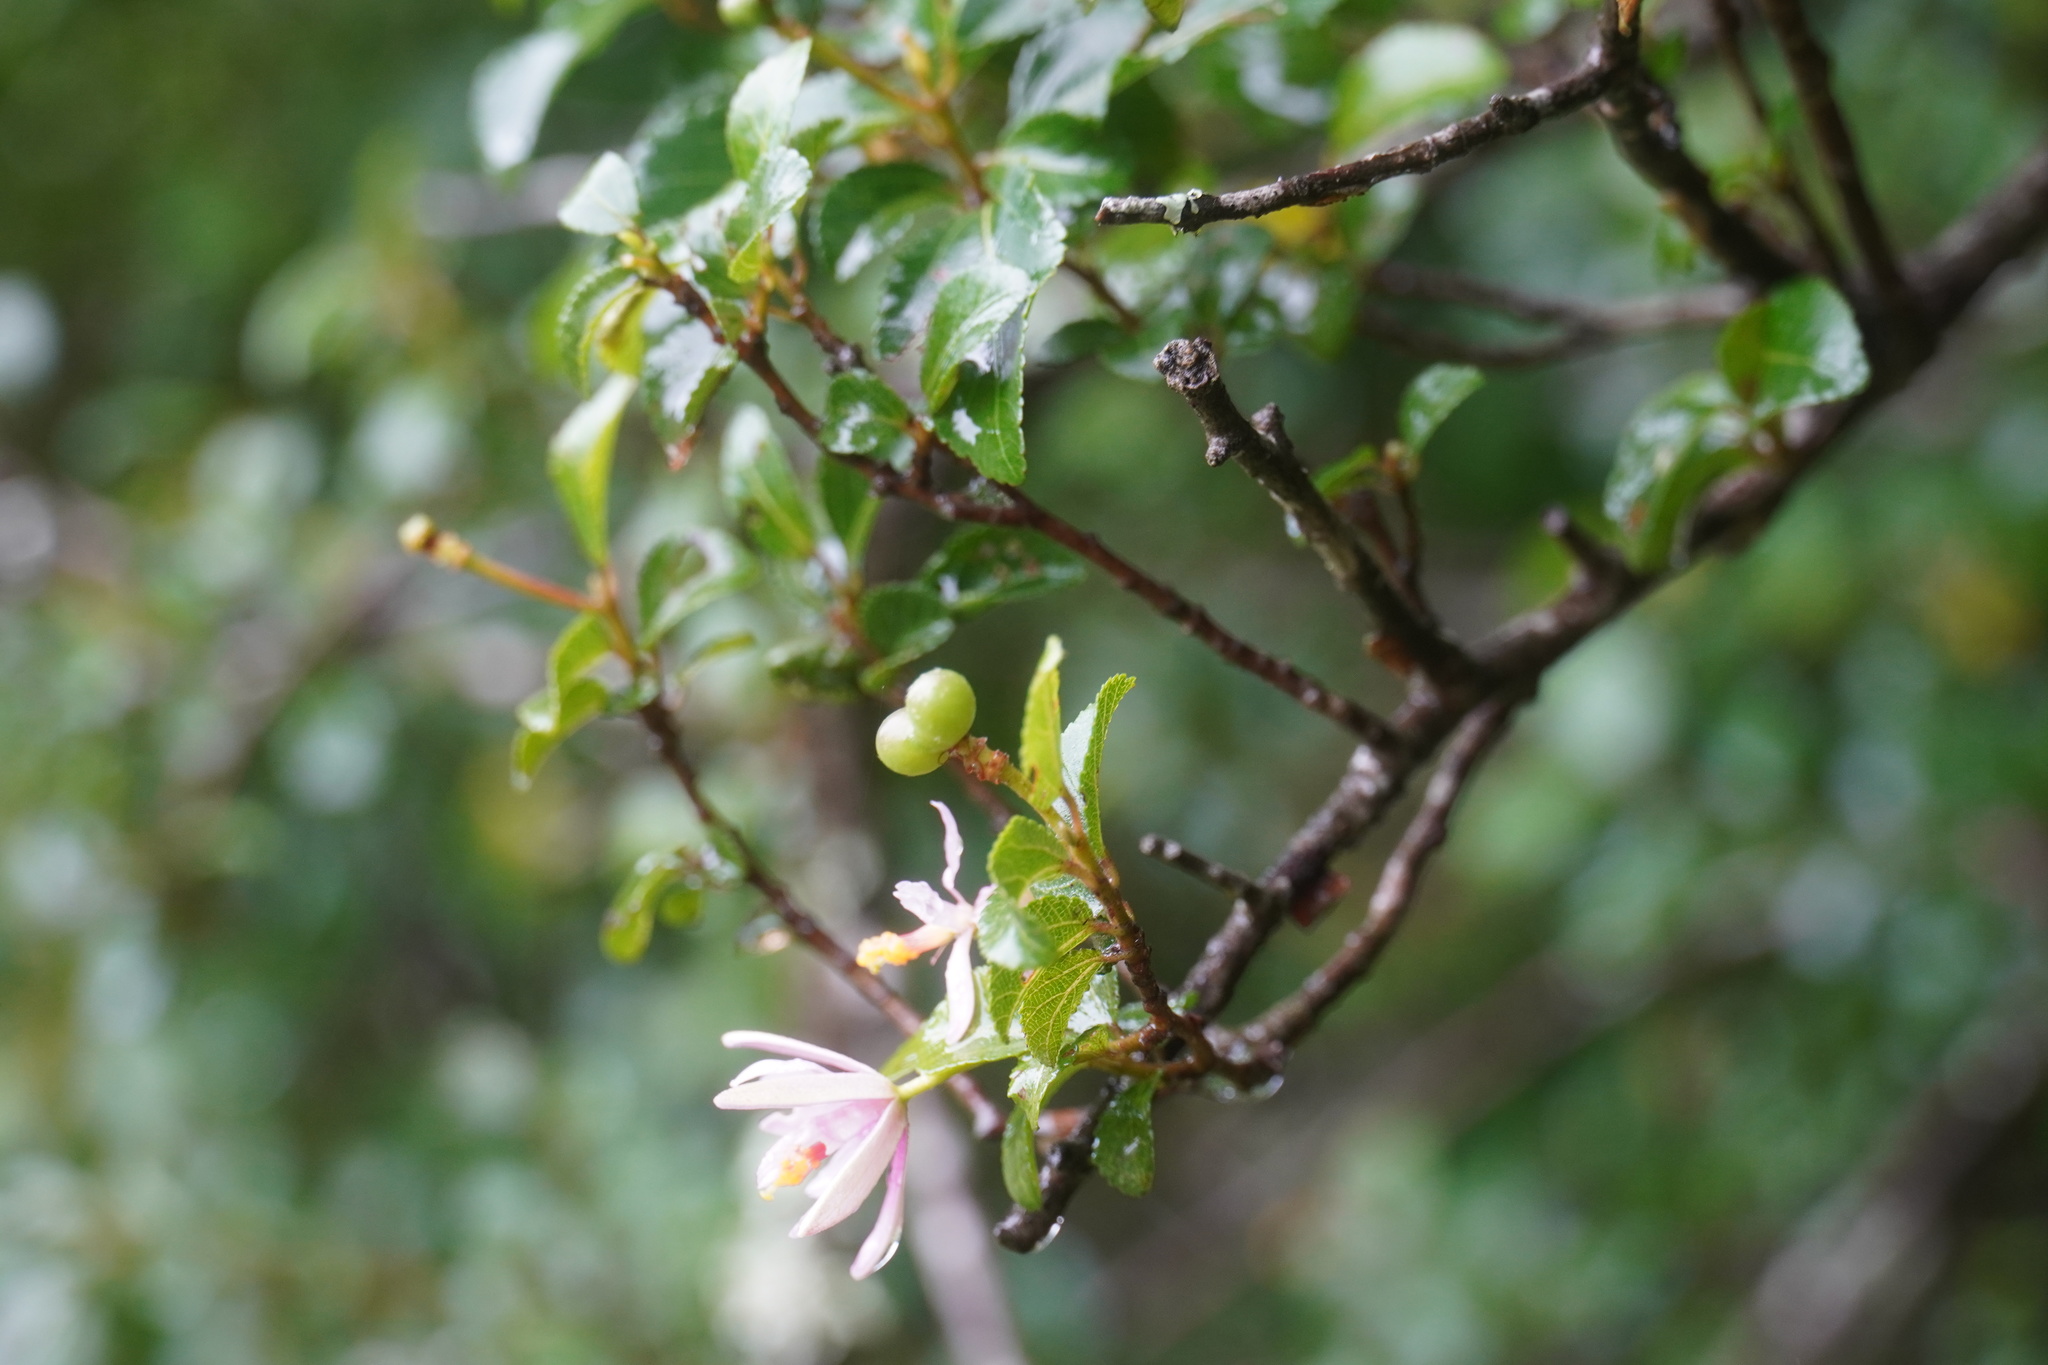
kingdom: Plantae
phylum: Tracheophyta
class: Magnoliopsida
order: Malvales
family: Malvaceae
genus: Grewia
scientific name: Grewia occidentalis
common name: Crossberry
